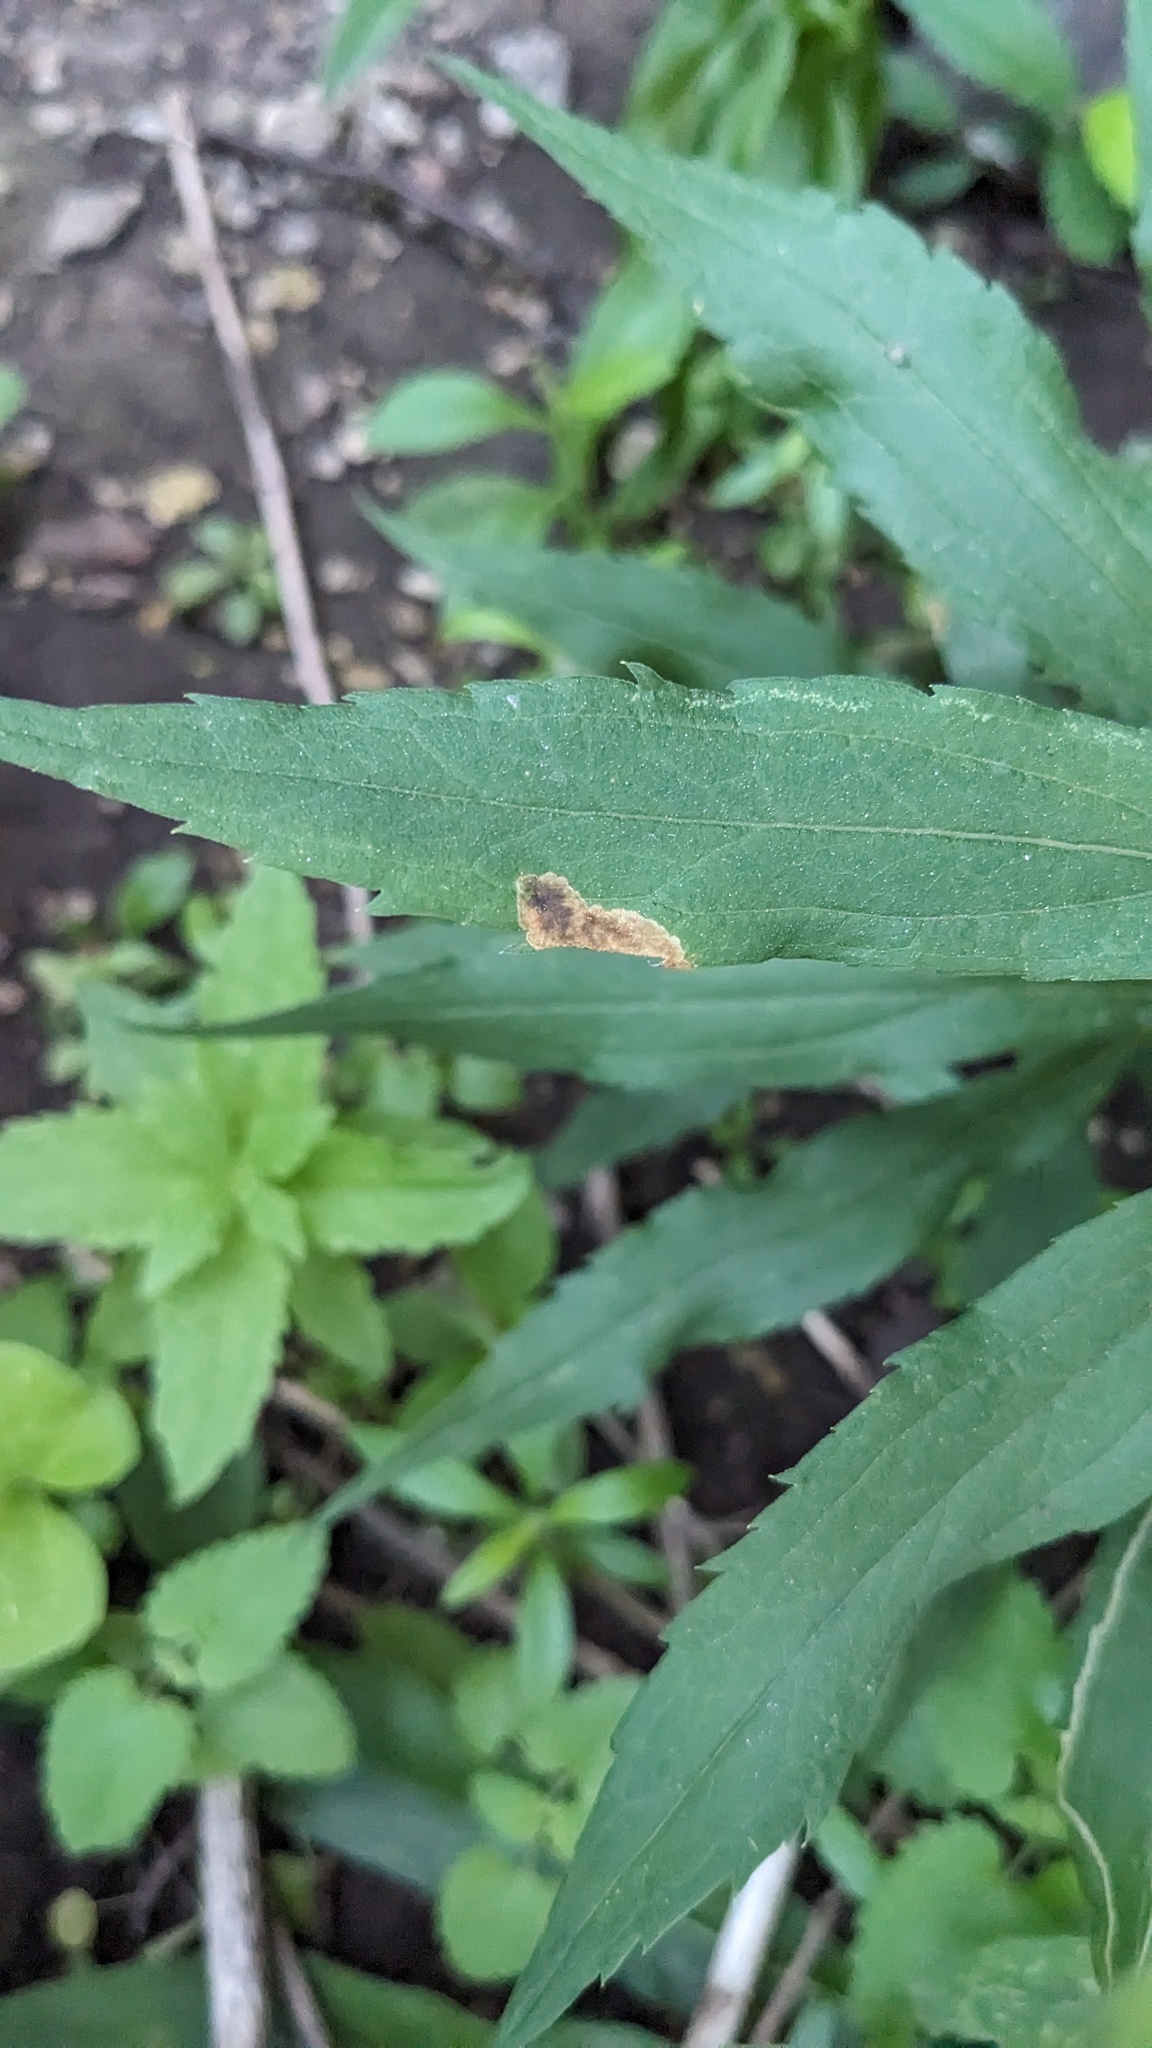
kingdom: Animalia
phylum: Arthropoda
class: Insecta
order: Diptera
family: Agromyzidae
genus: Nemorimyza
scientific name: Nemorimyza posticata
